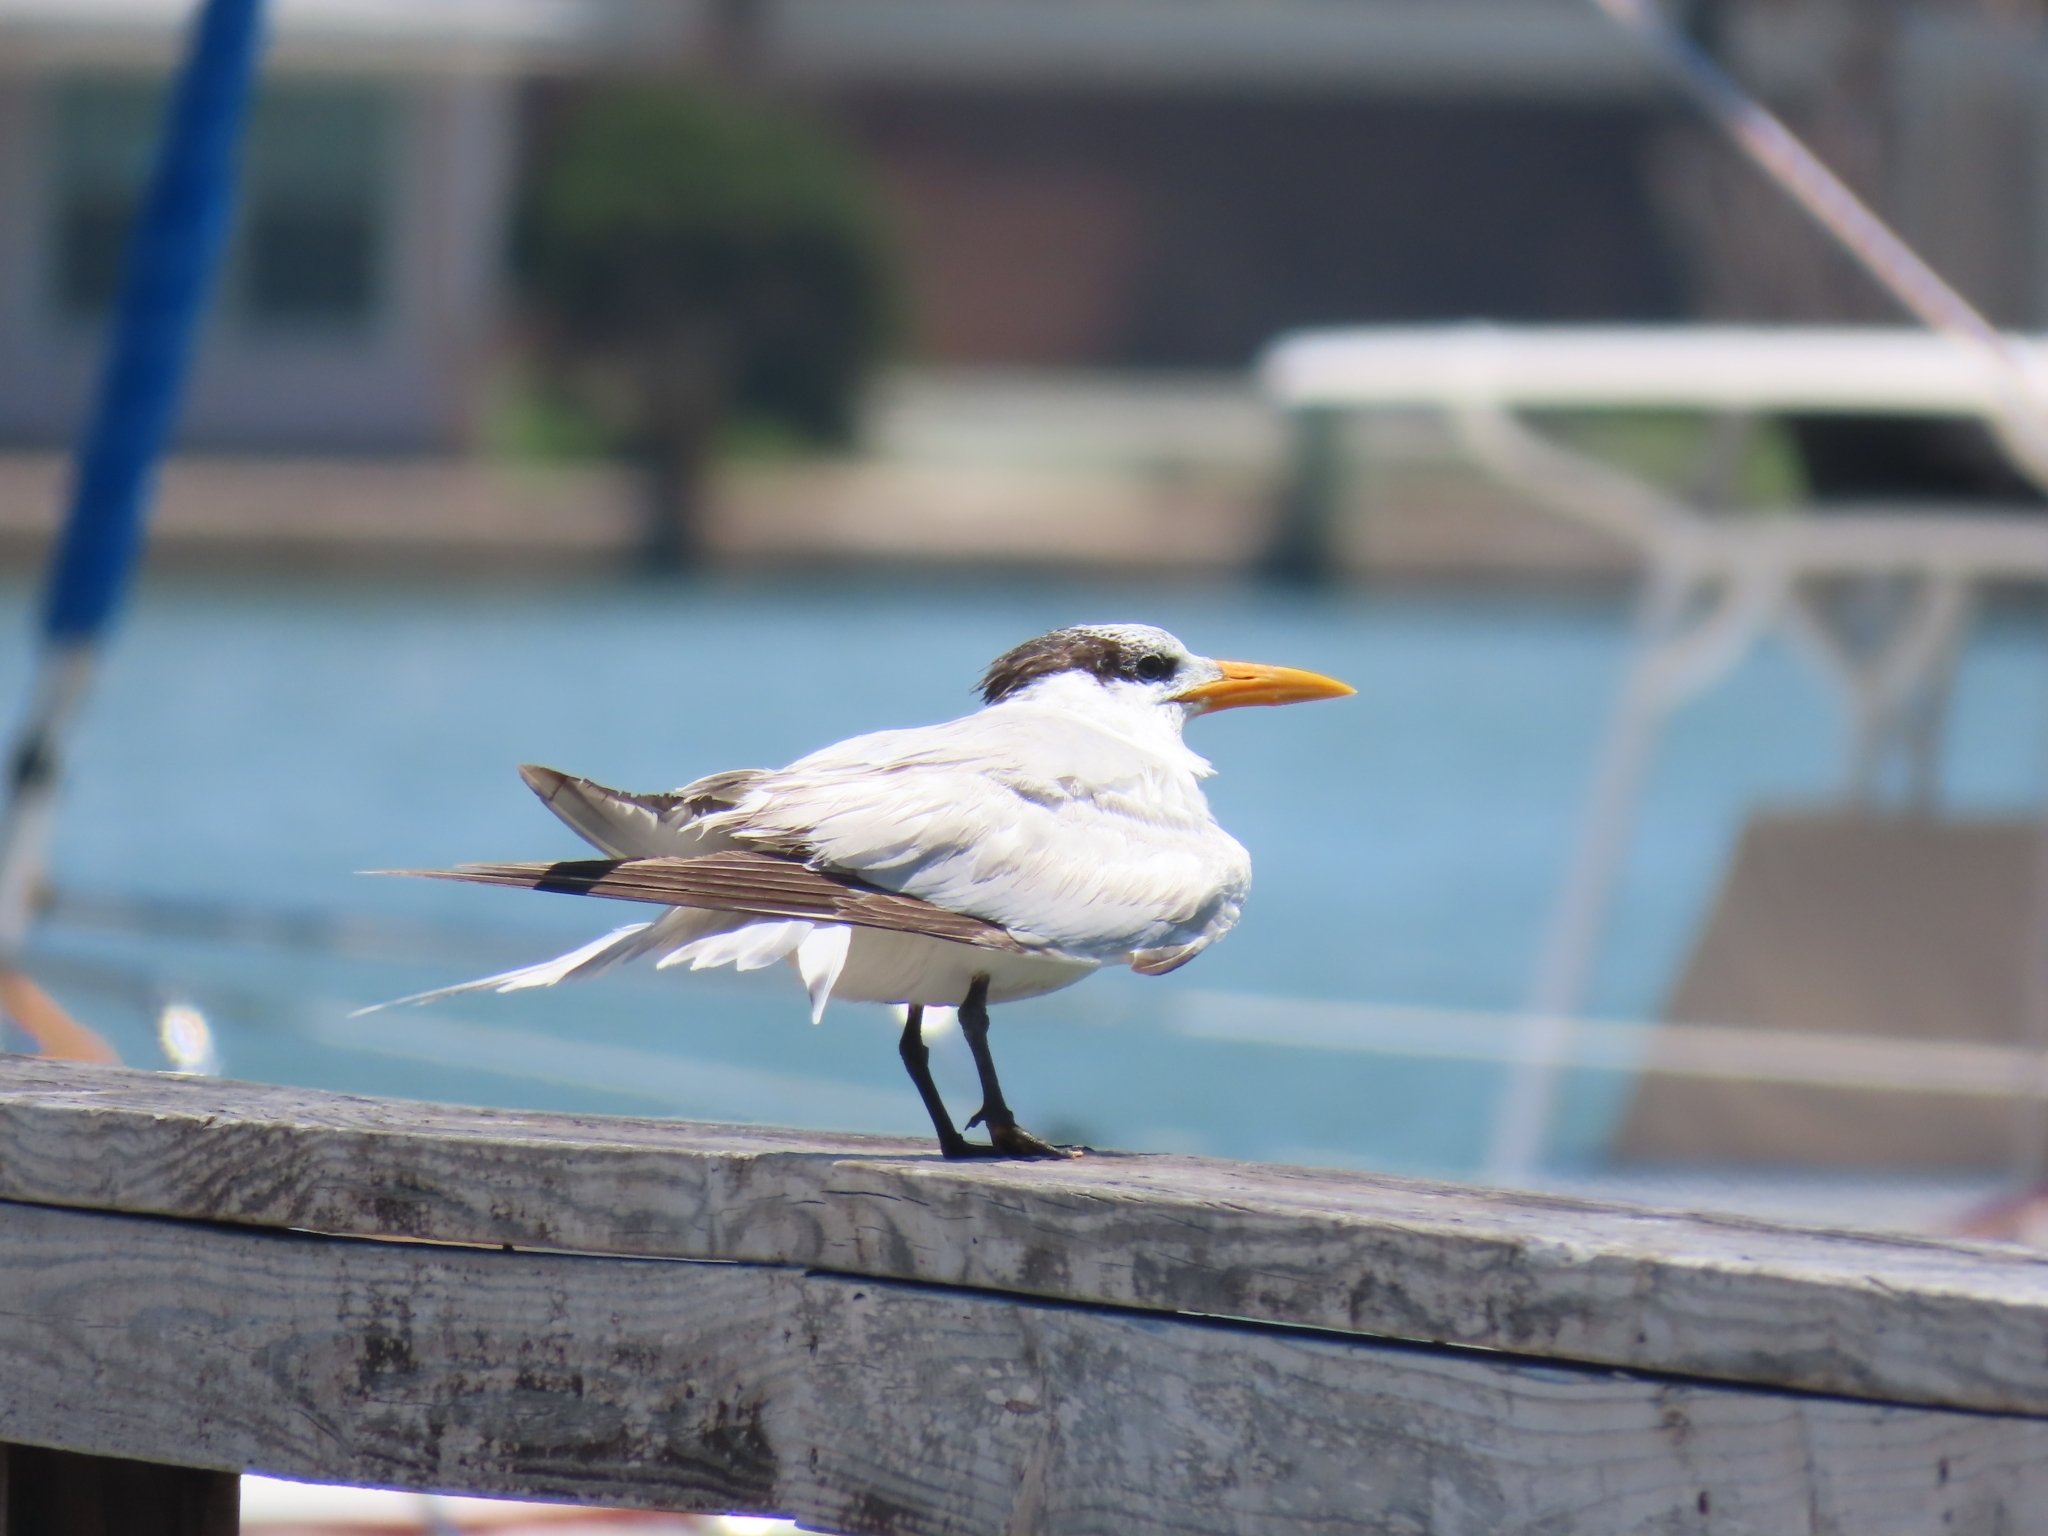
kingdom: Animalia
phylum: Chordata
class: Aves
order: Charadriiformes
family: Laridae
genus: Thalasseus
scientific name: Thalasseus maximus
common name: Royal tern
